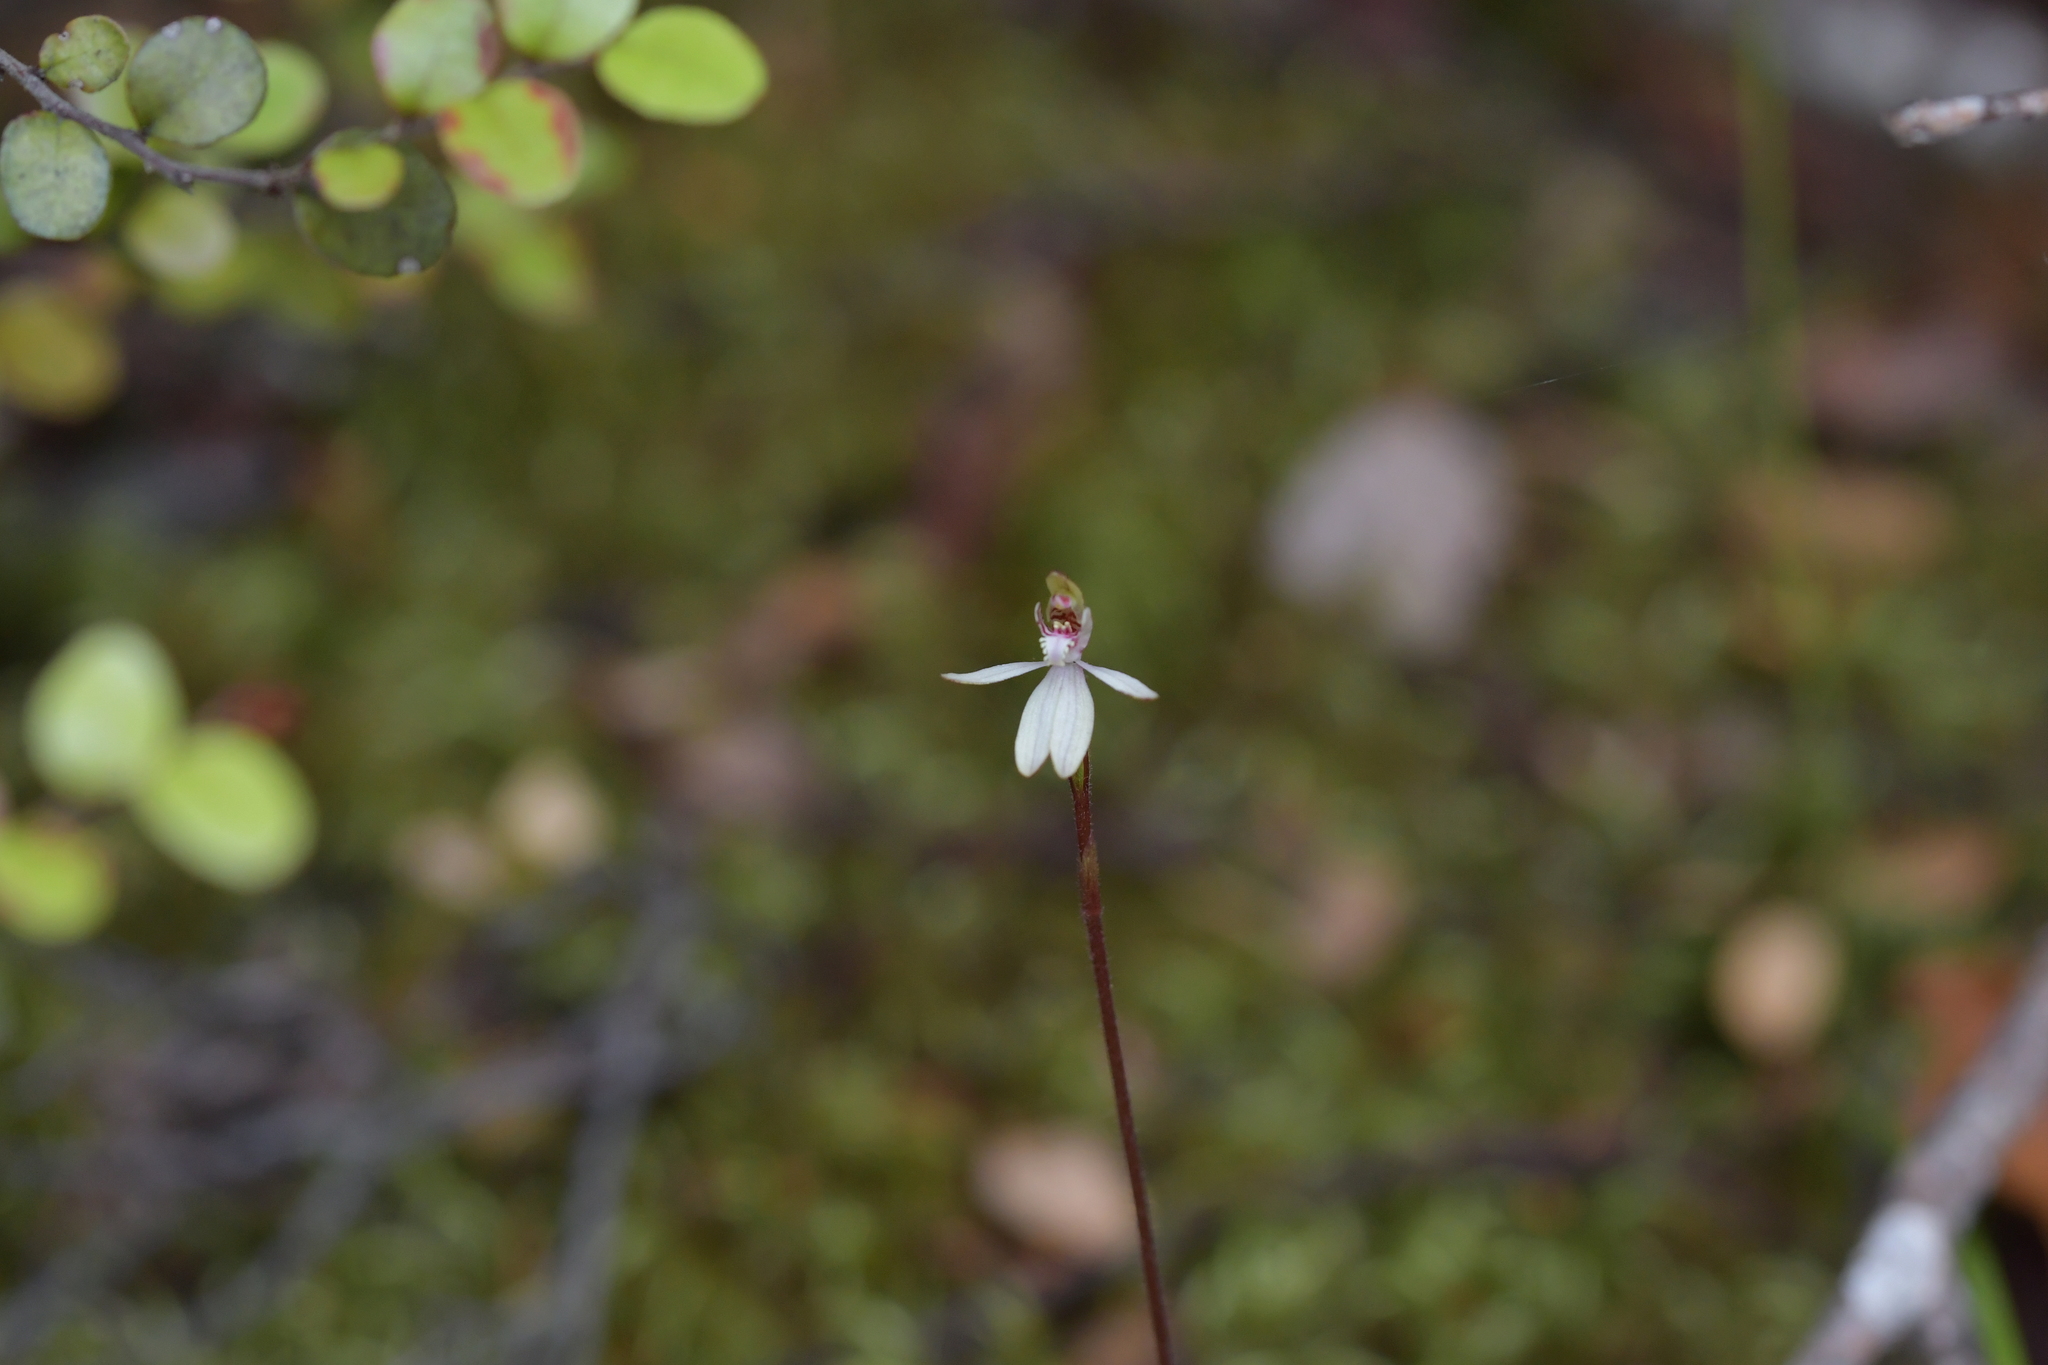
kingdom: Plantae
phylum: Tracheophyta
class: Liliopsida
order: Asparagales
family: Orchidaceae
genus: Caladenia
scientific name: Caladenia chlorostyla
